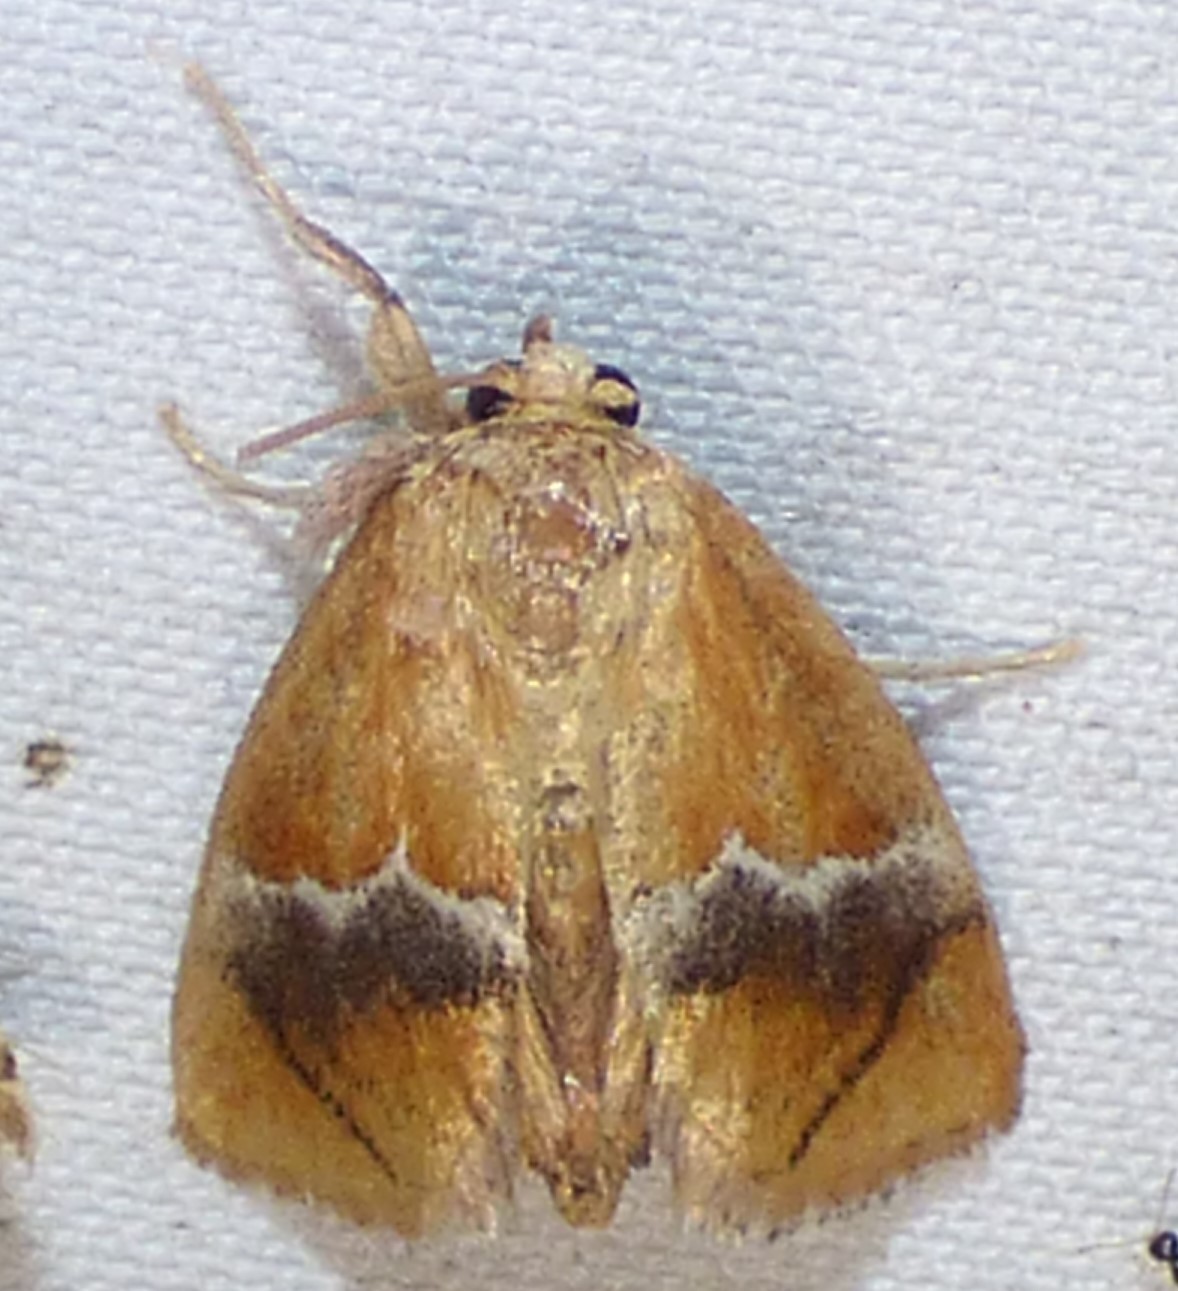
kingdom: Animalia
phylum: Arthropoda
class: Insecta
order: Lepidoptera
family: Limacodidae
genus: Lithacodes
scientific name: Lithacodes fasciola
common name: Yellow-shouldered slug moth
